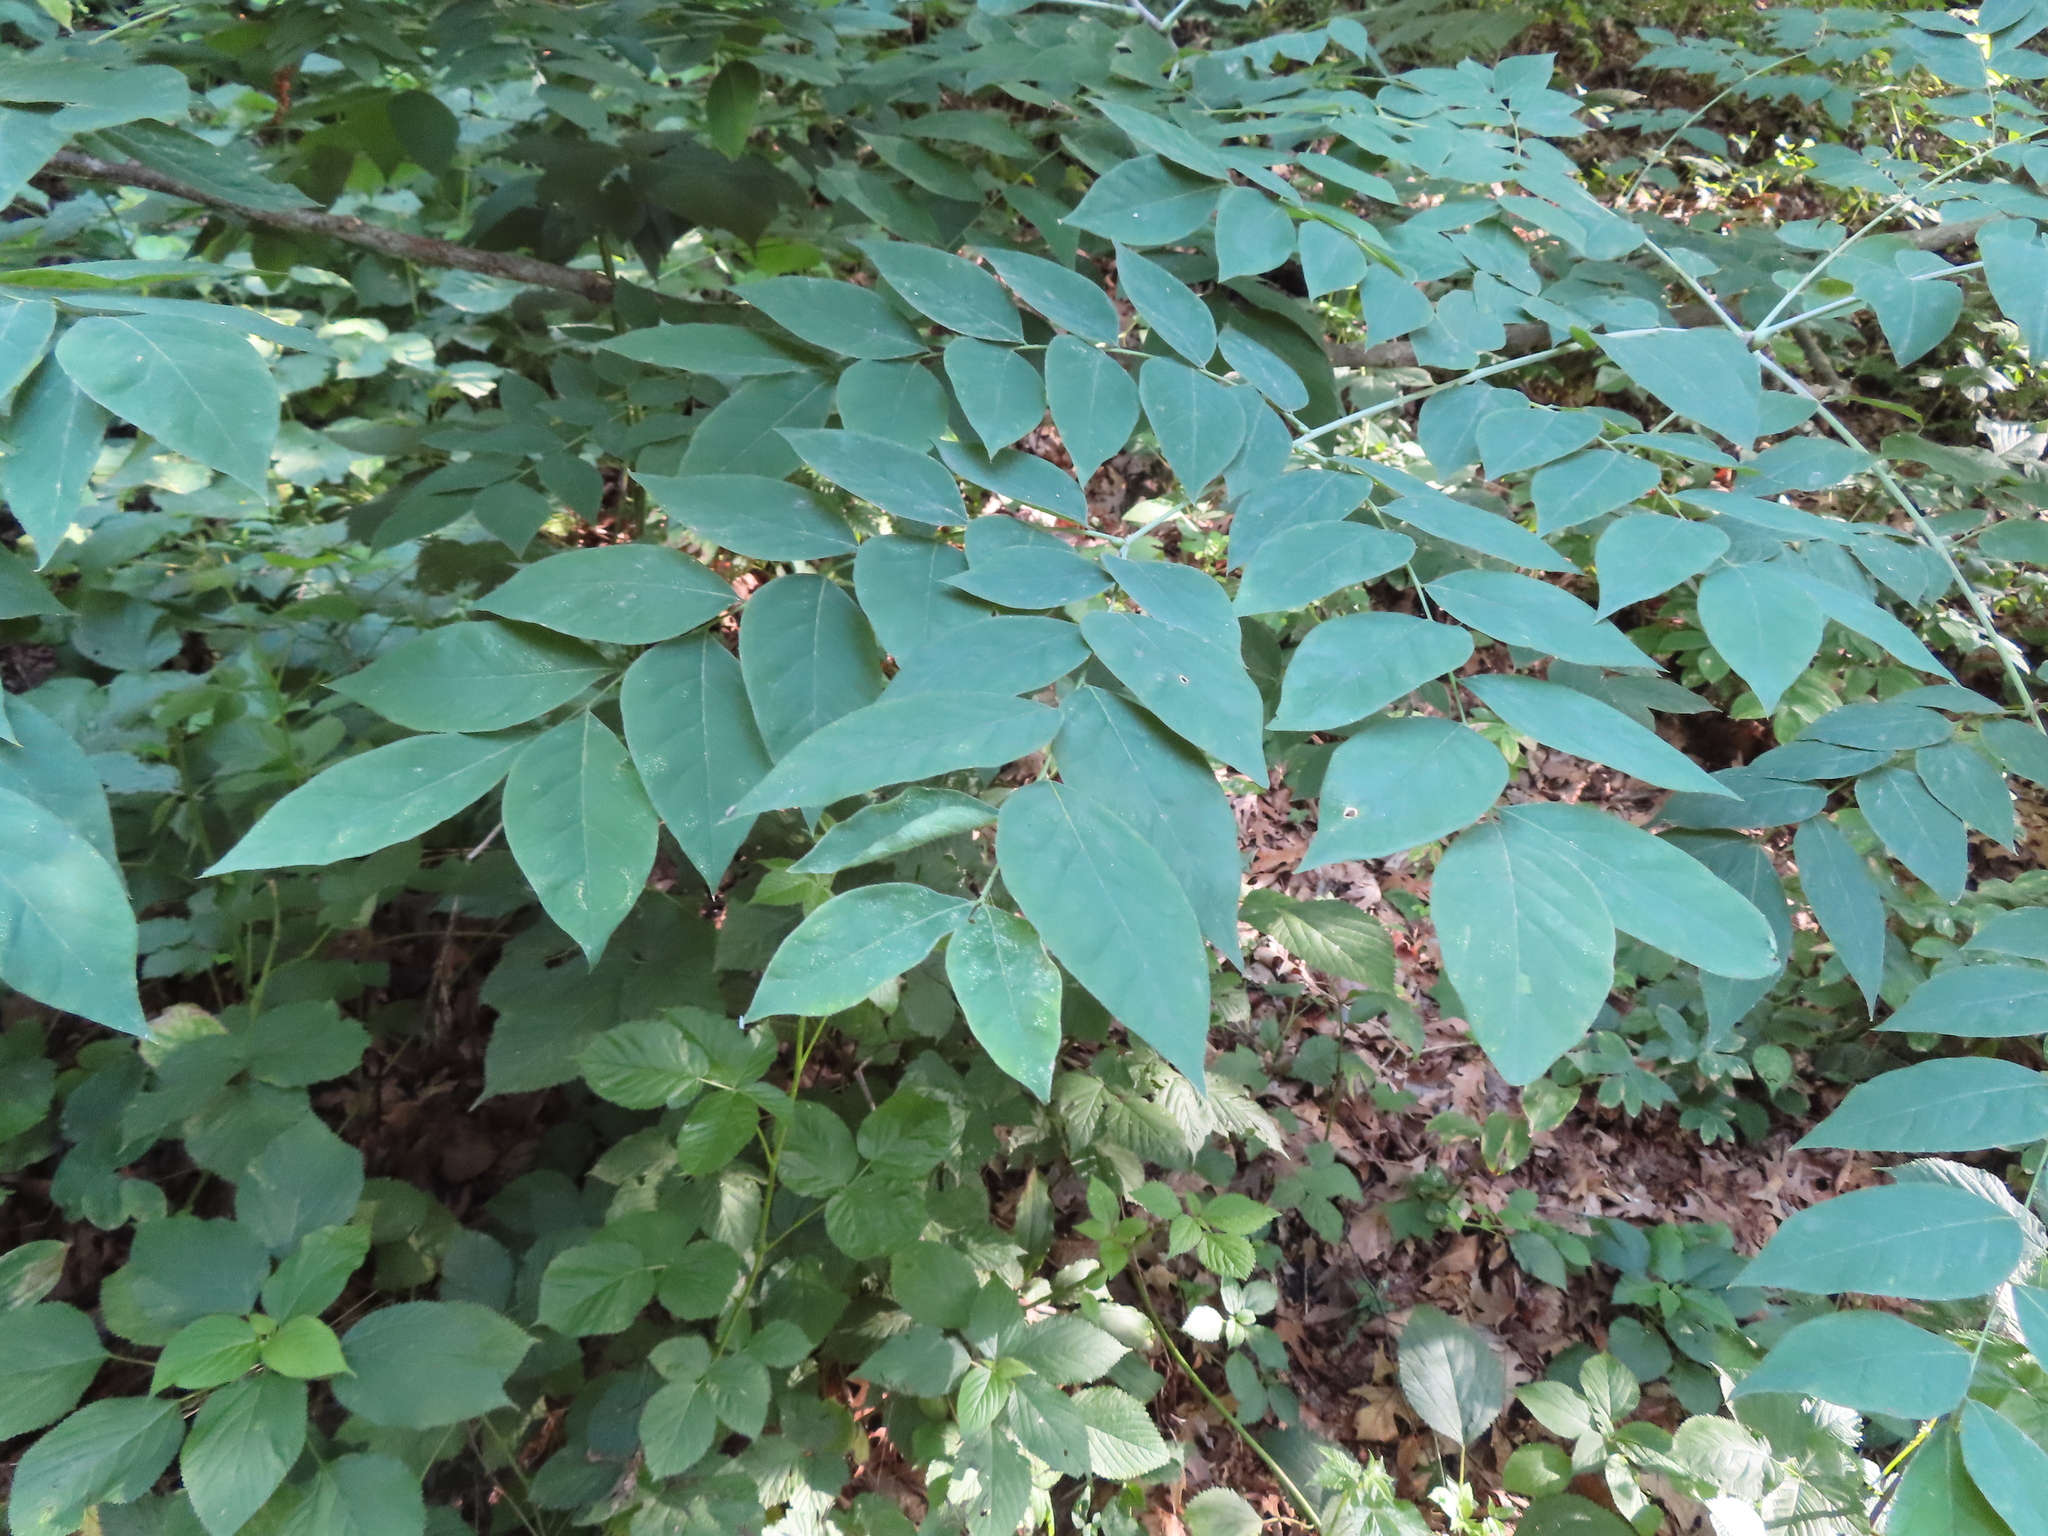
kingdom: Plantae
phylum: Tracheophyta
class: Magnoliopsida
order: Fabales
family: Fabaceae
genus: Gymnocladus
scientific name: Gymnocladus dioicus
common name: Kentucky coffee-tree
